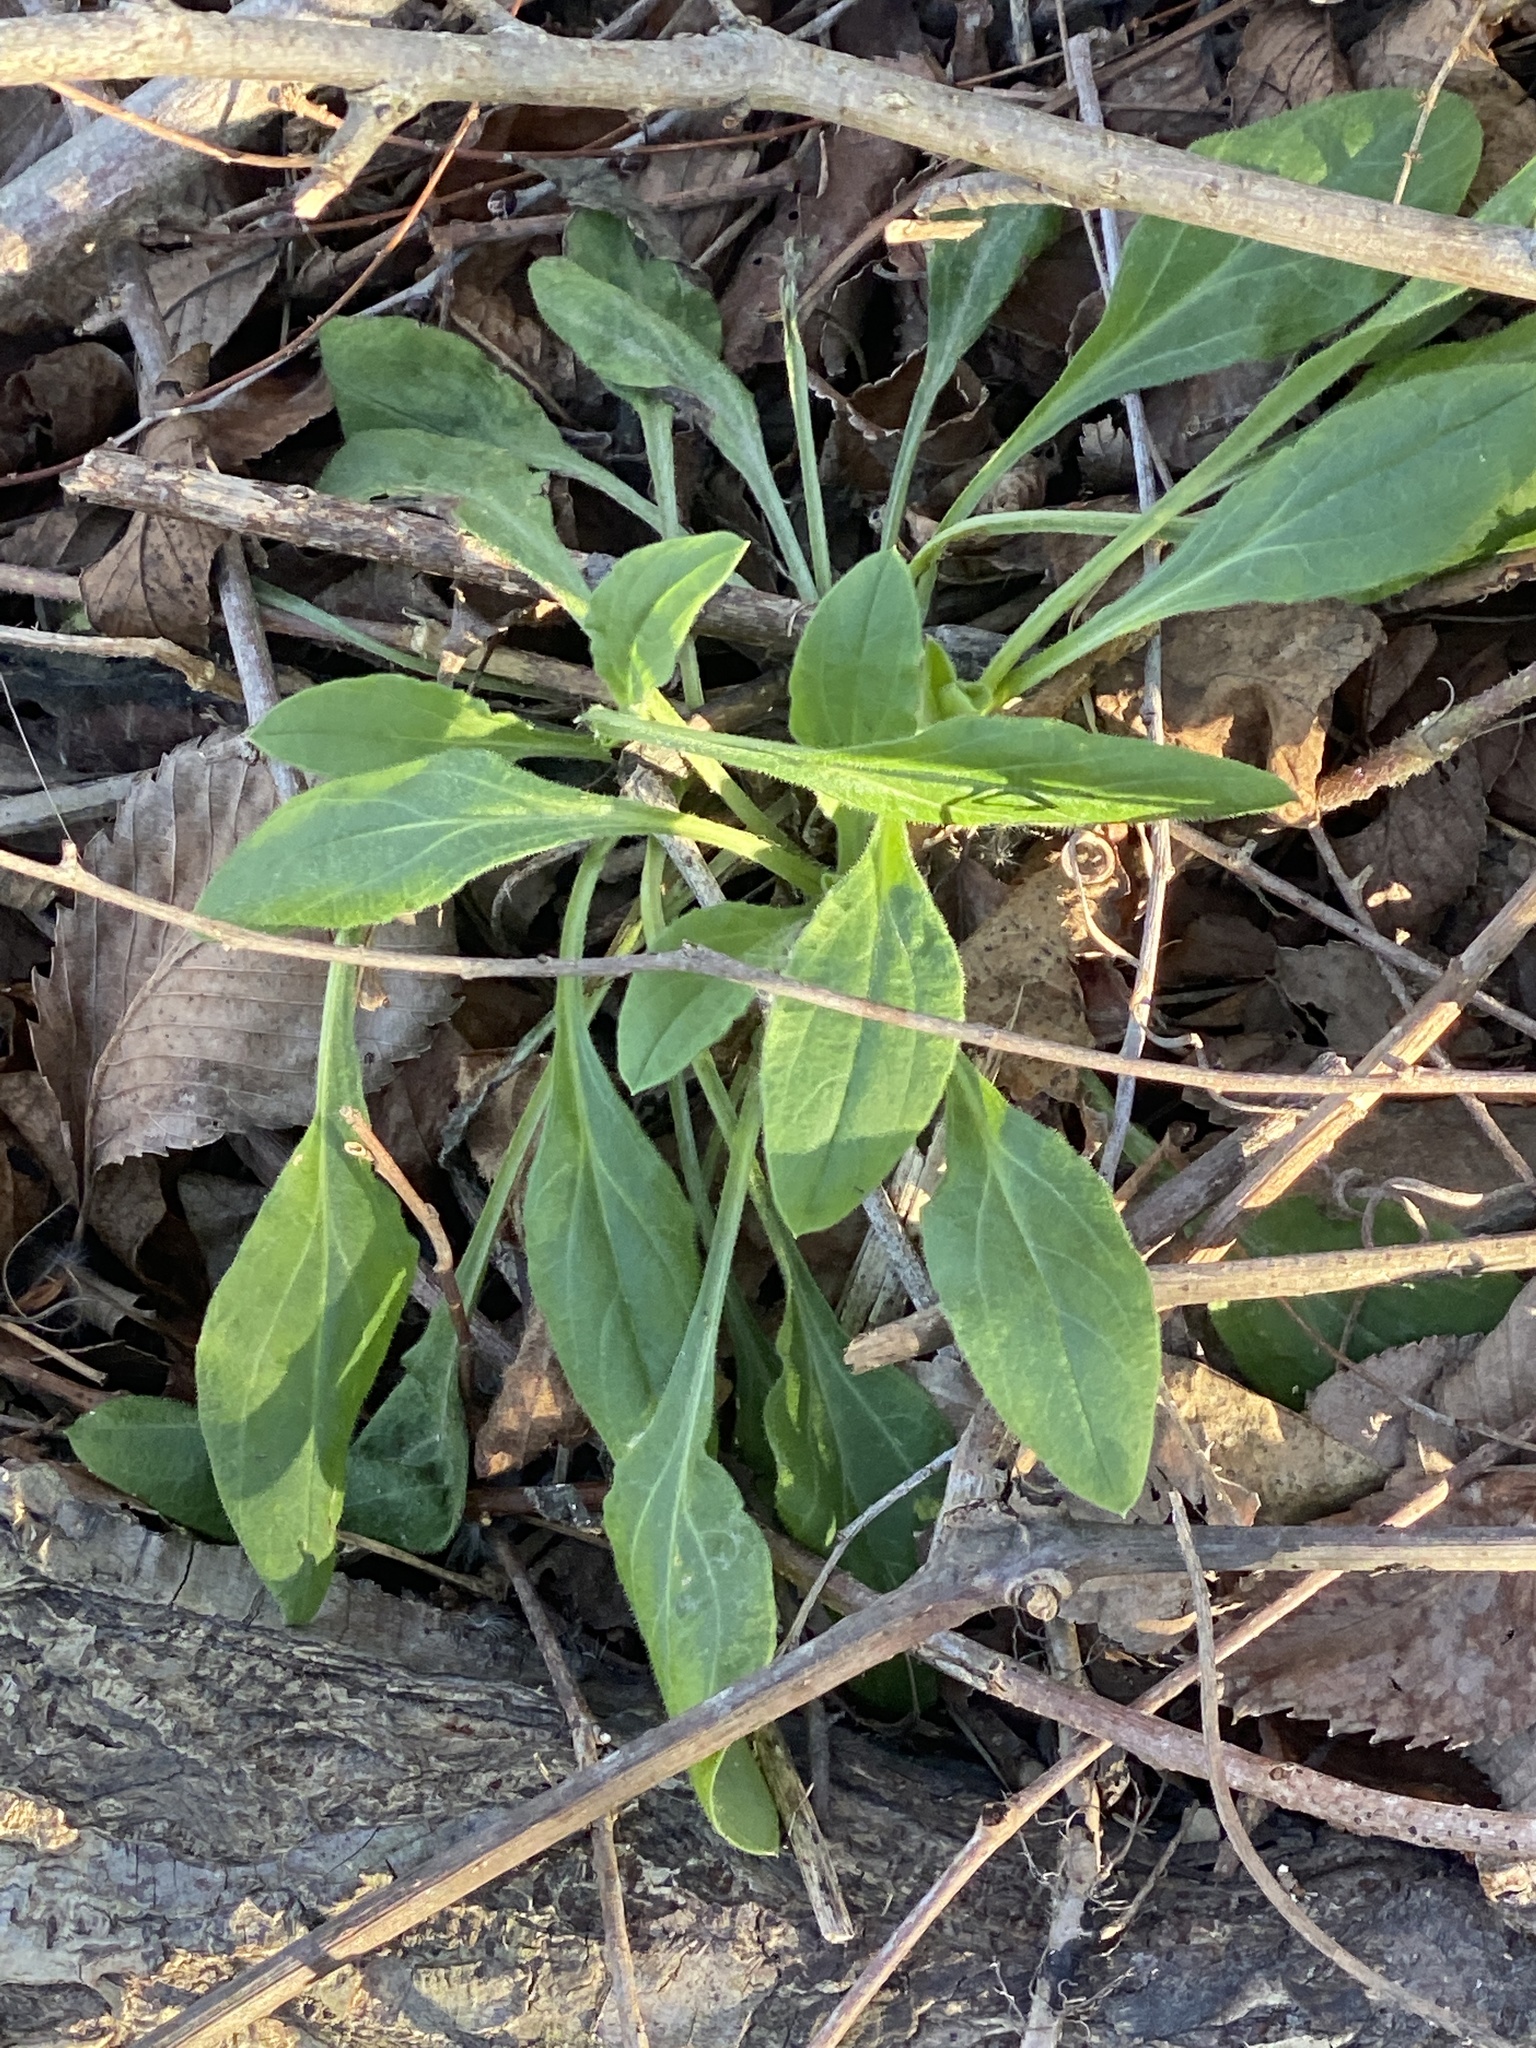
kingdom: Plantae
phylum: Tracheophyta
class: Magnoliopsida
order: Caryophyllales
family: Caryophyllaceae
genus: Silene
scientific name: Silene latifolia
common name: White campion
